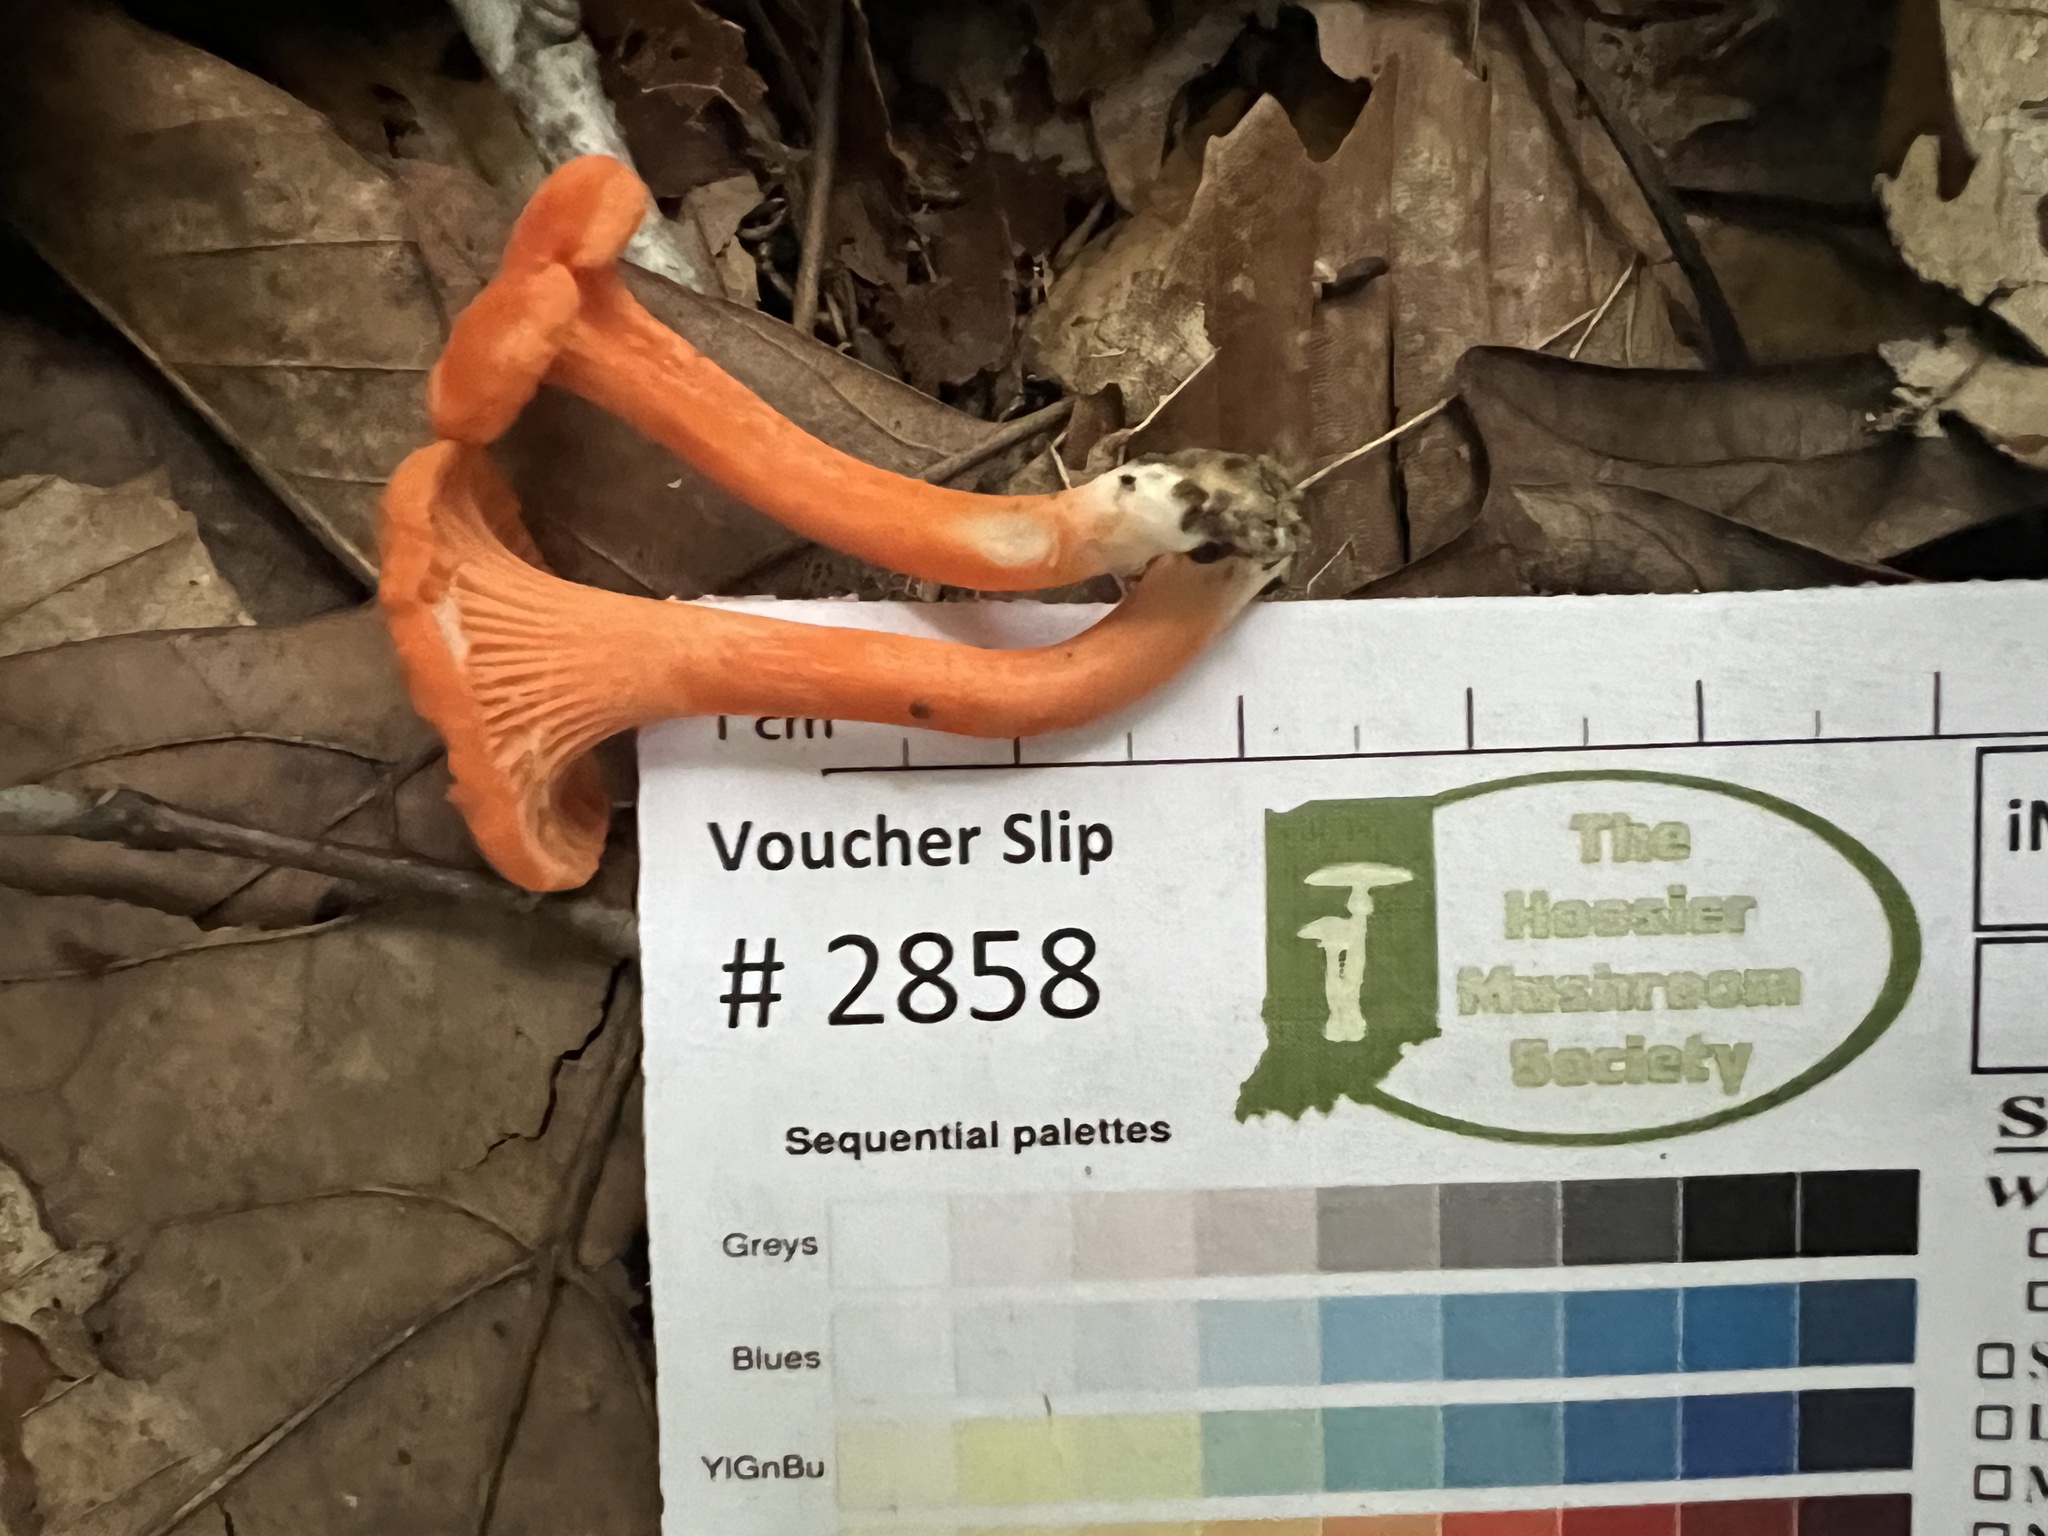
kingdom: Fungi
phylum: Basidiomycota
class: Agaricomycetes
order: Cantharellales
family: Hydnaceae
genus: Cantharellus
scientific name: Cantharellus corallinus
